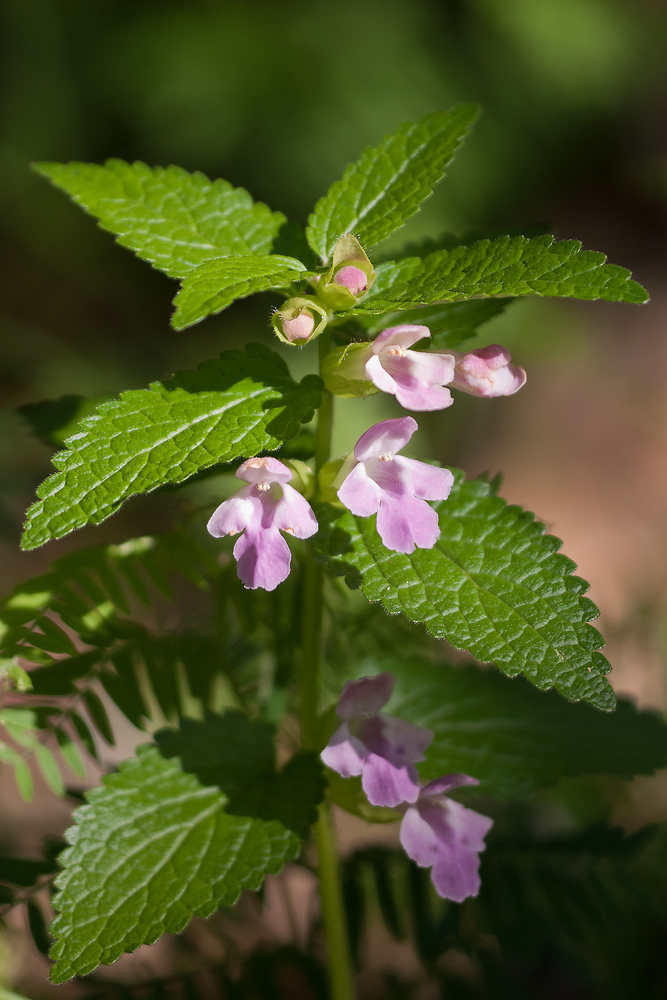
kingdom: Plantae
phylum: Tracheophyta
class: Magnoliopsida
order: Lamiales
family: Lamiaceae
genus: Melittis
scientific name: Melittis melissophyllum
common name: Bastard balm
